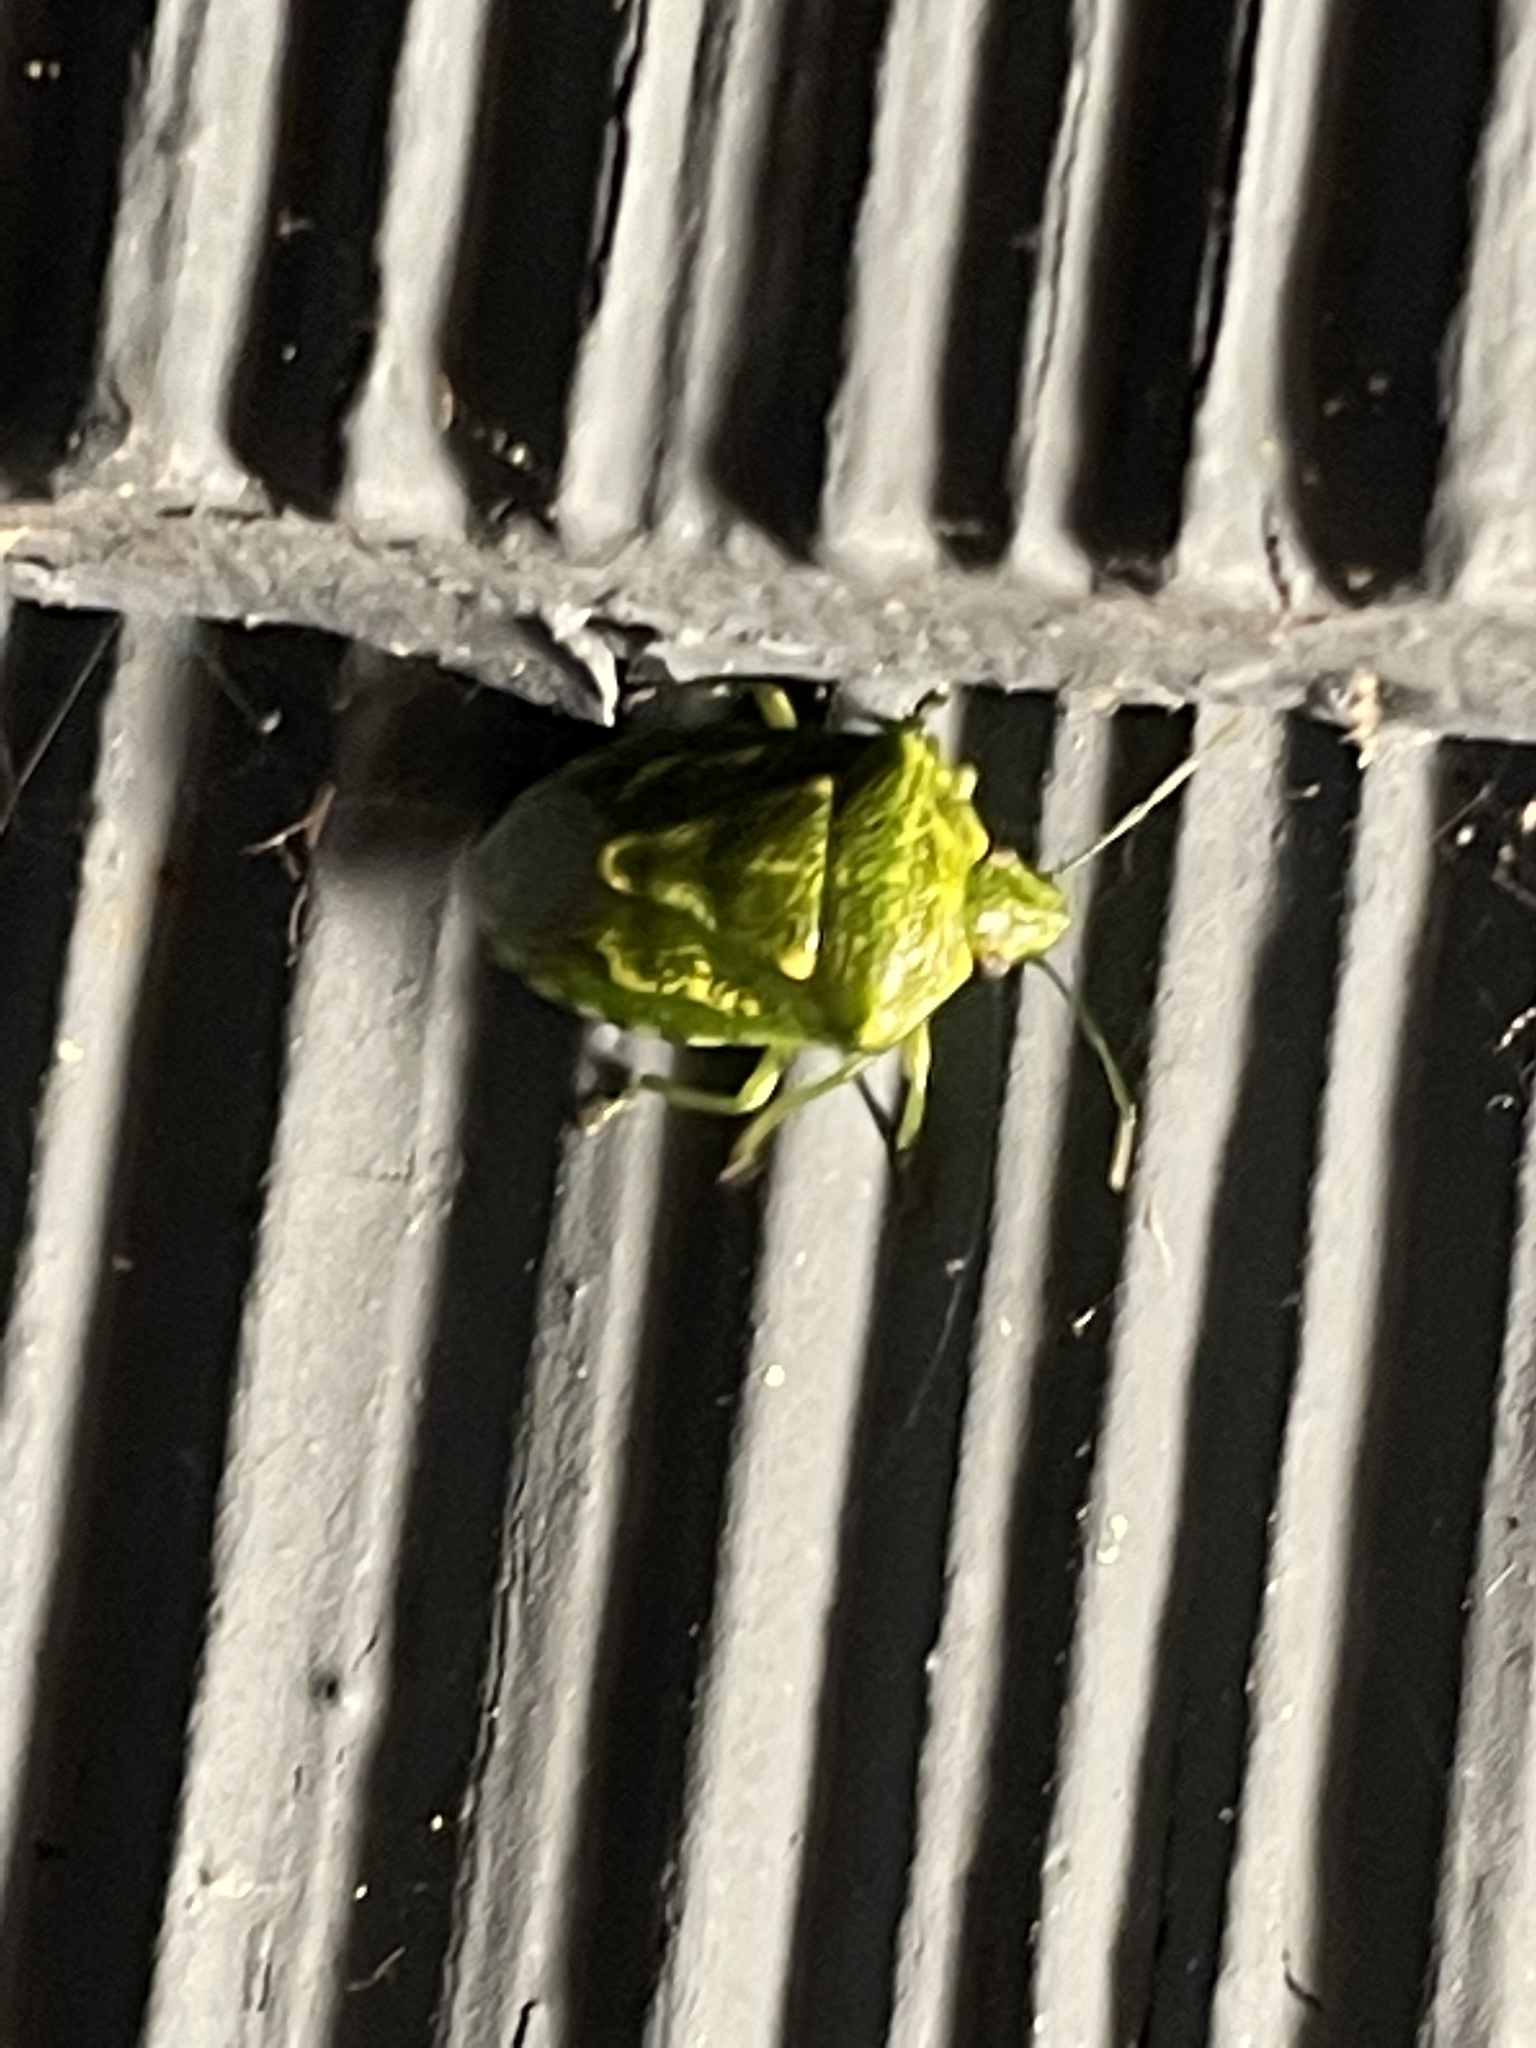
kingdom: Animalia
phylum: Arthropoda
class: Insecta
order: Hemiptera
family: Pentatomidae
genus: Banasa
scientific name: Banasa euchlora
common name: Cedar berry bug
